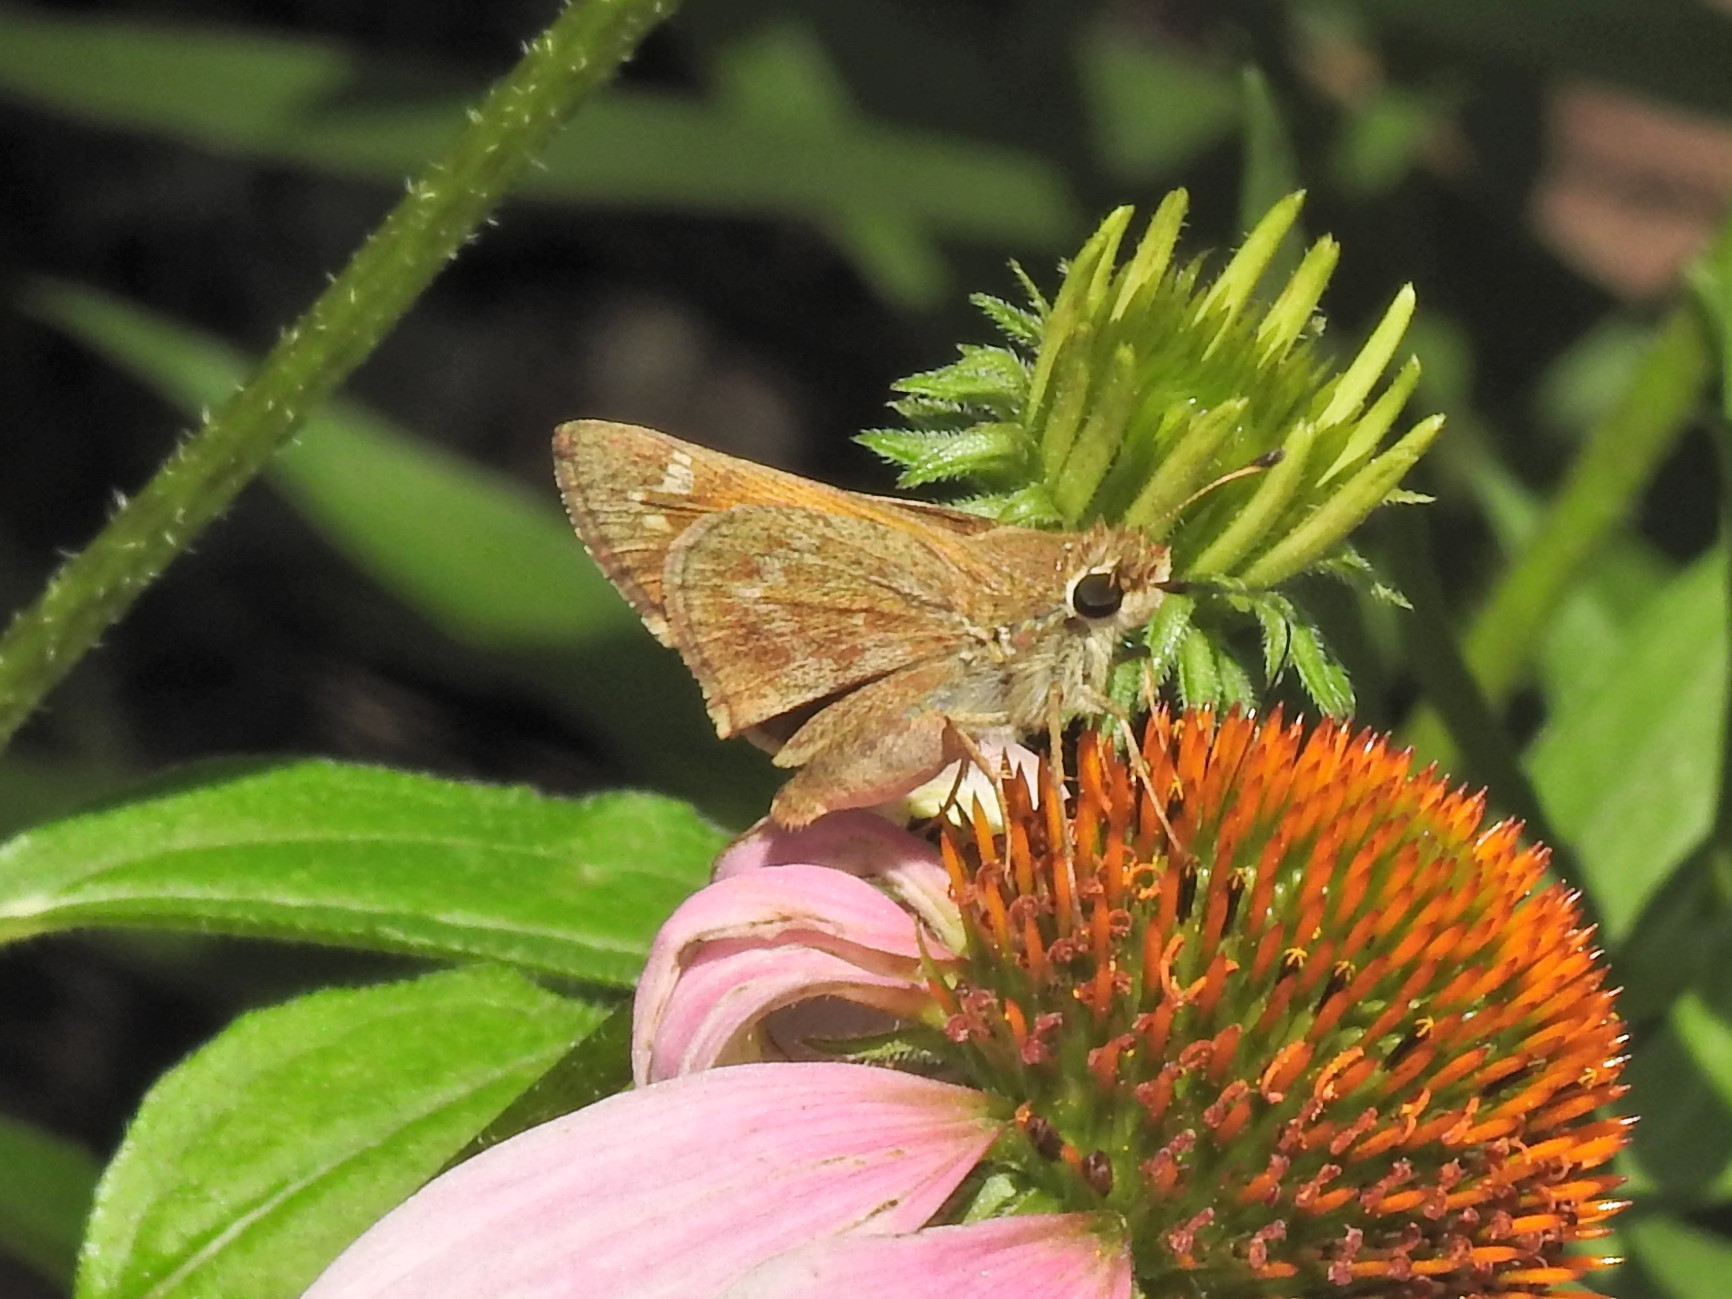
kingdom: Animalia
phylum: Arthropoda
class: Insecta
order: Lepidoptera
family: Hesperiidae
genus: Atalopedes
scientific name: Atalopedes
